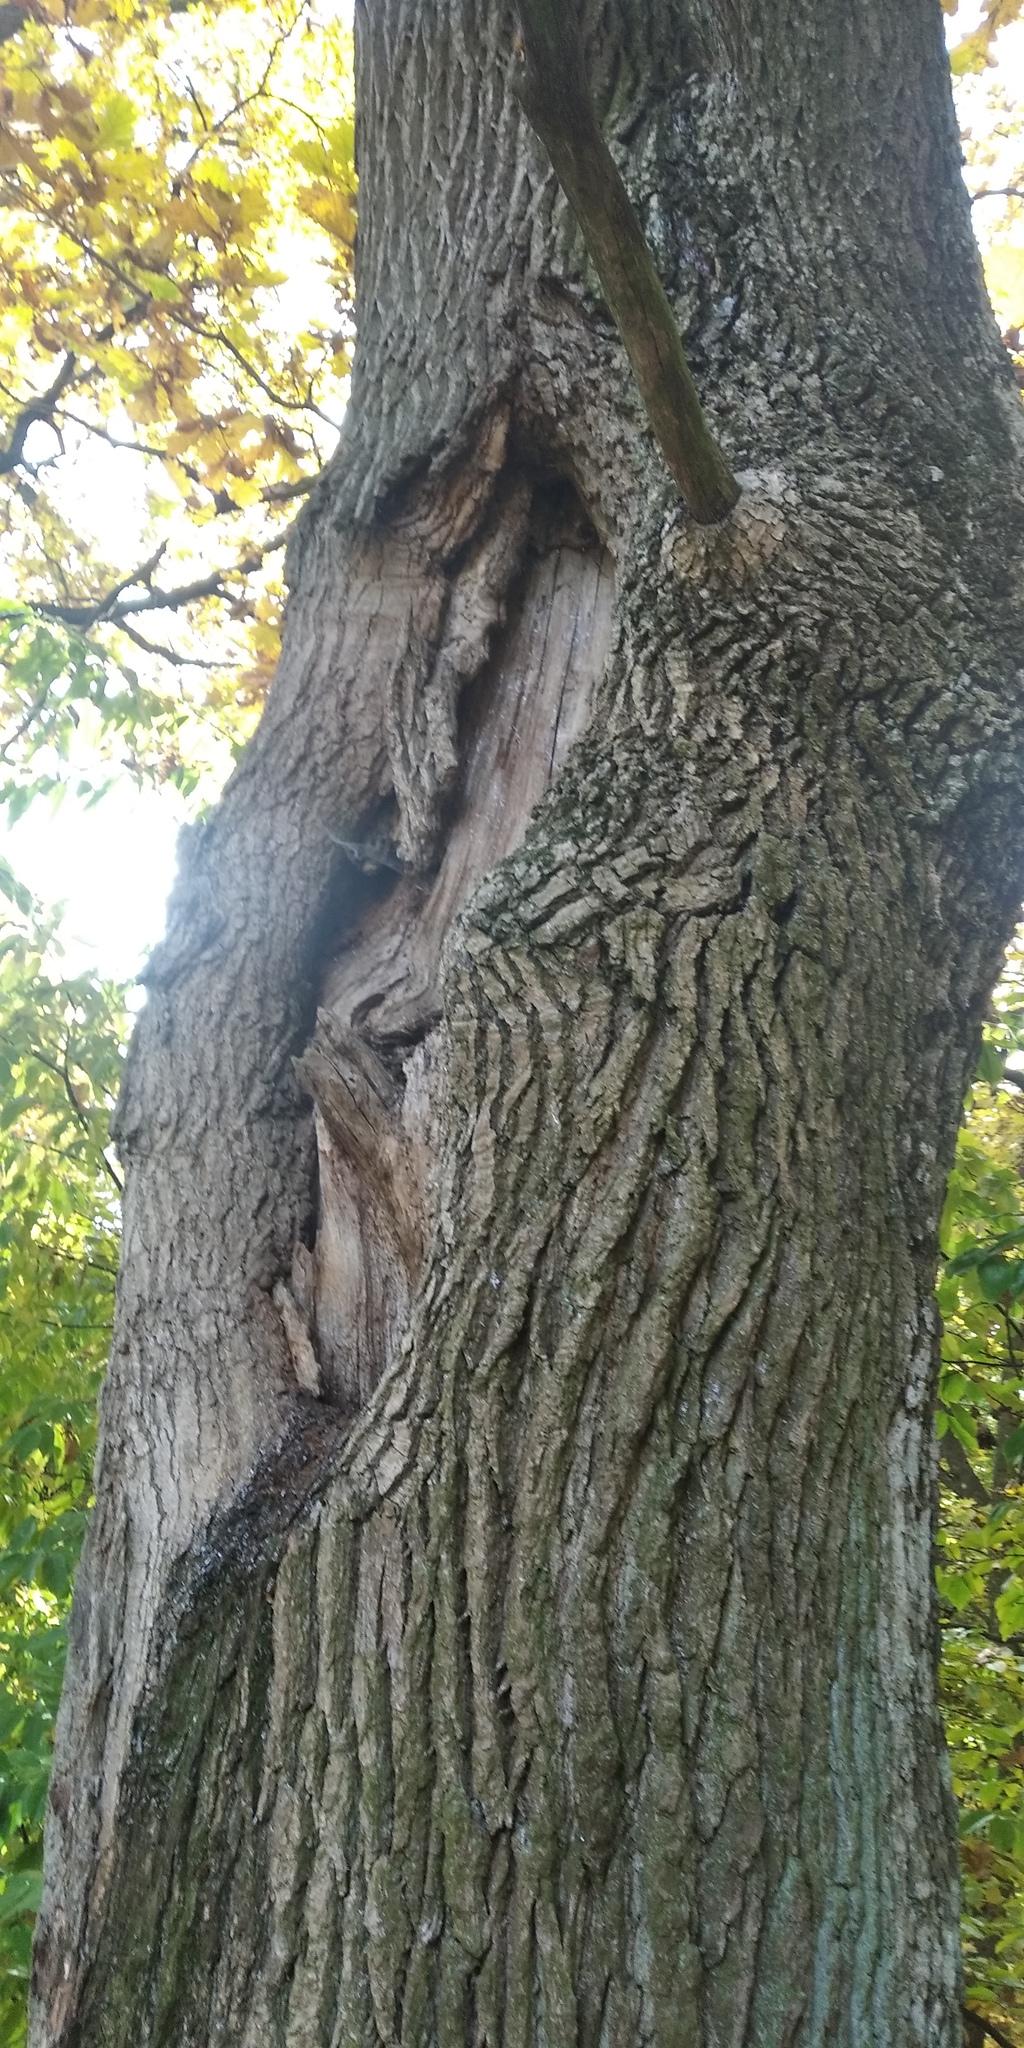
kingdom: Plantae
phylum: Tracheophyta
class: Magnoliopsida
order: Fagales
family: Fagaceae
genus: Quercus
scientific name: Quercus robur
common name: Pedunculate oak
